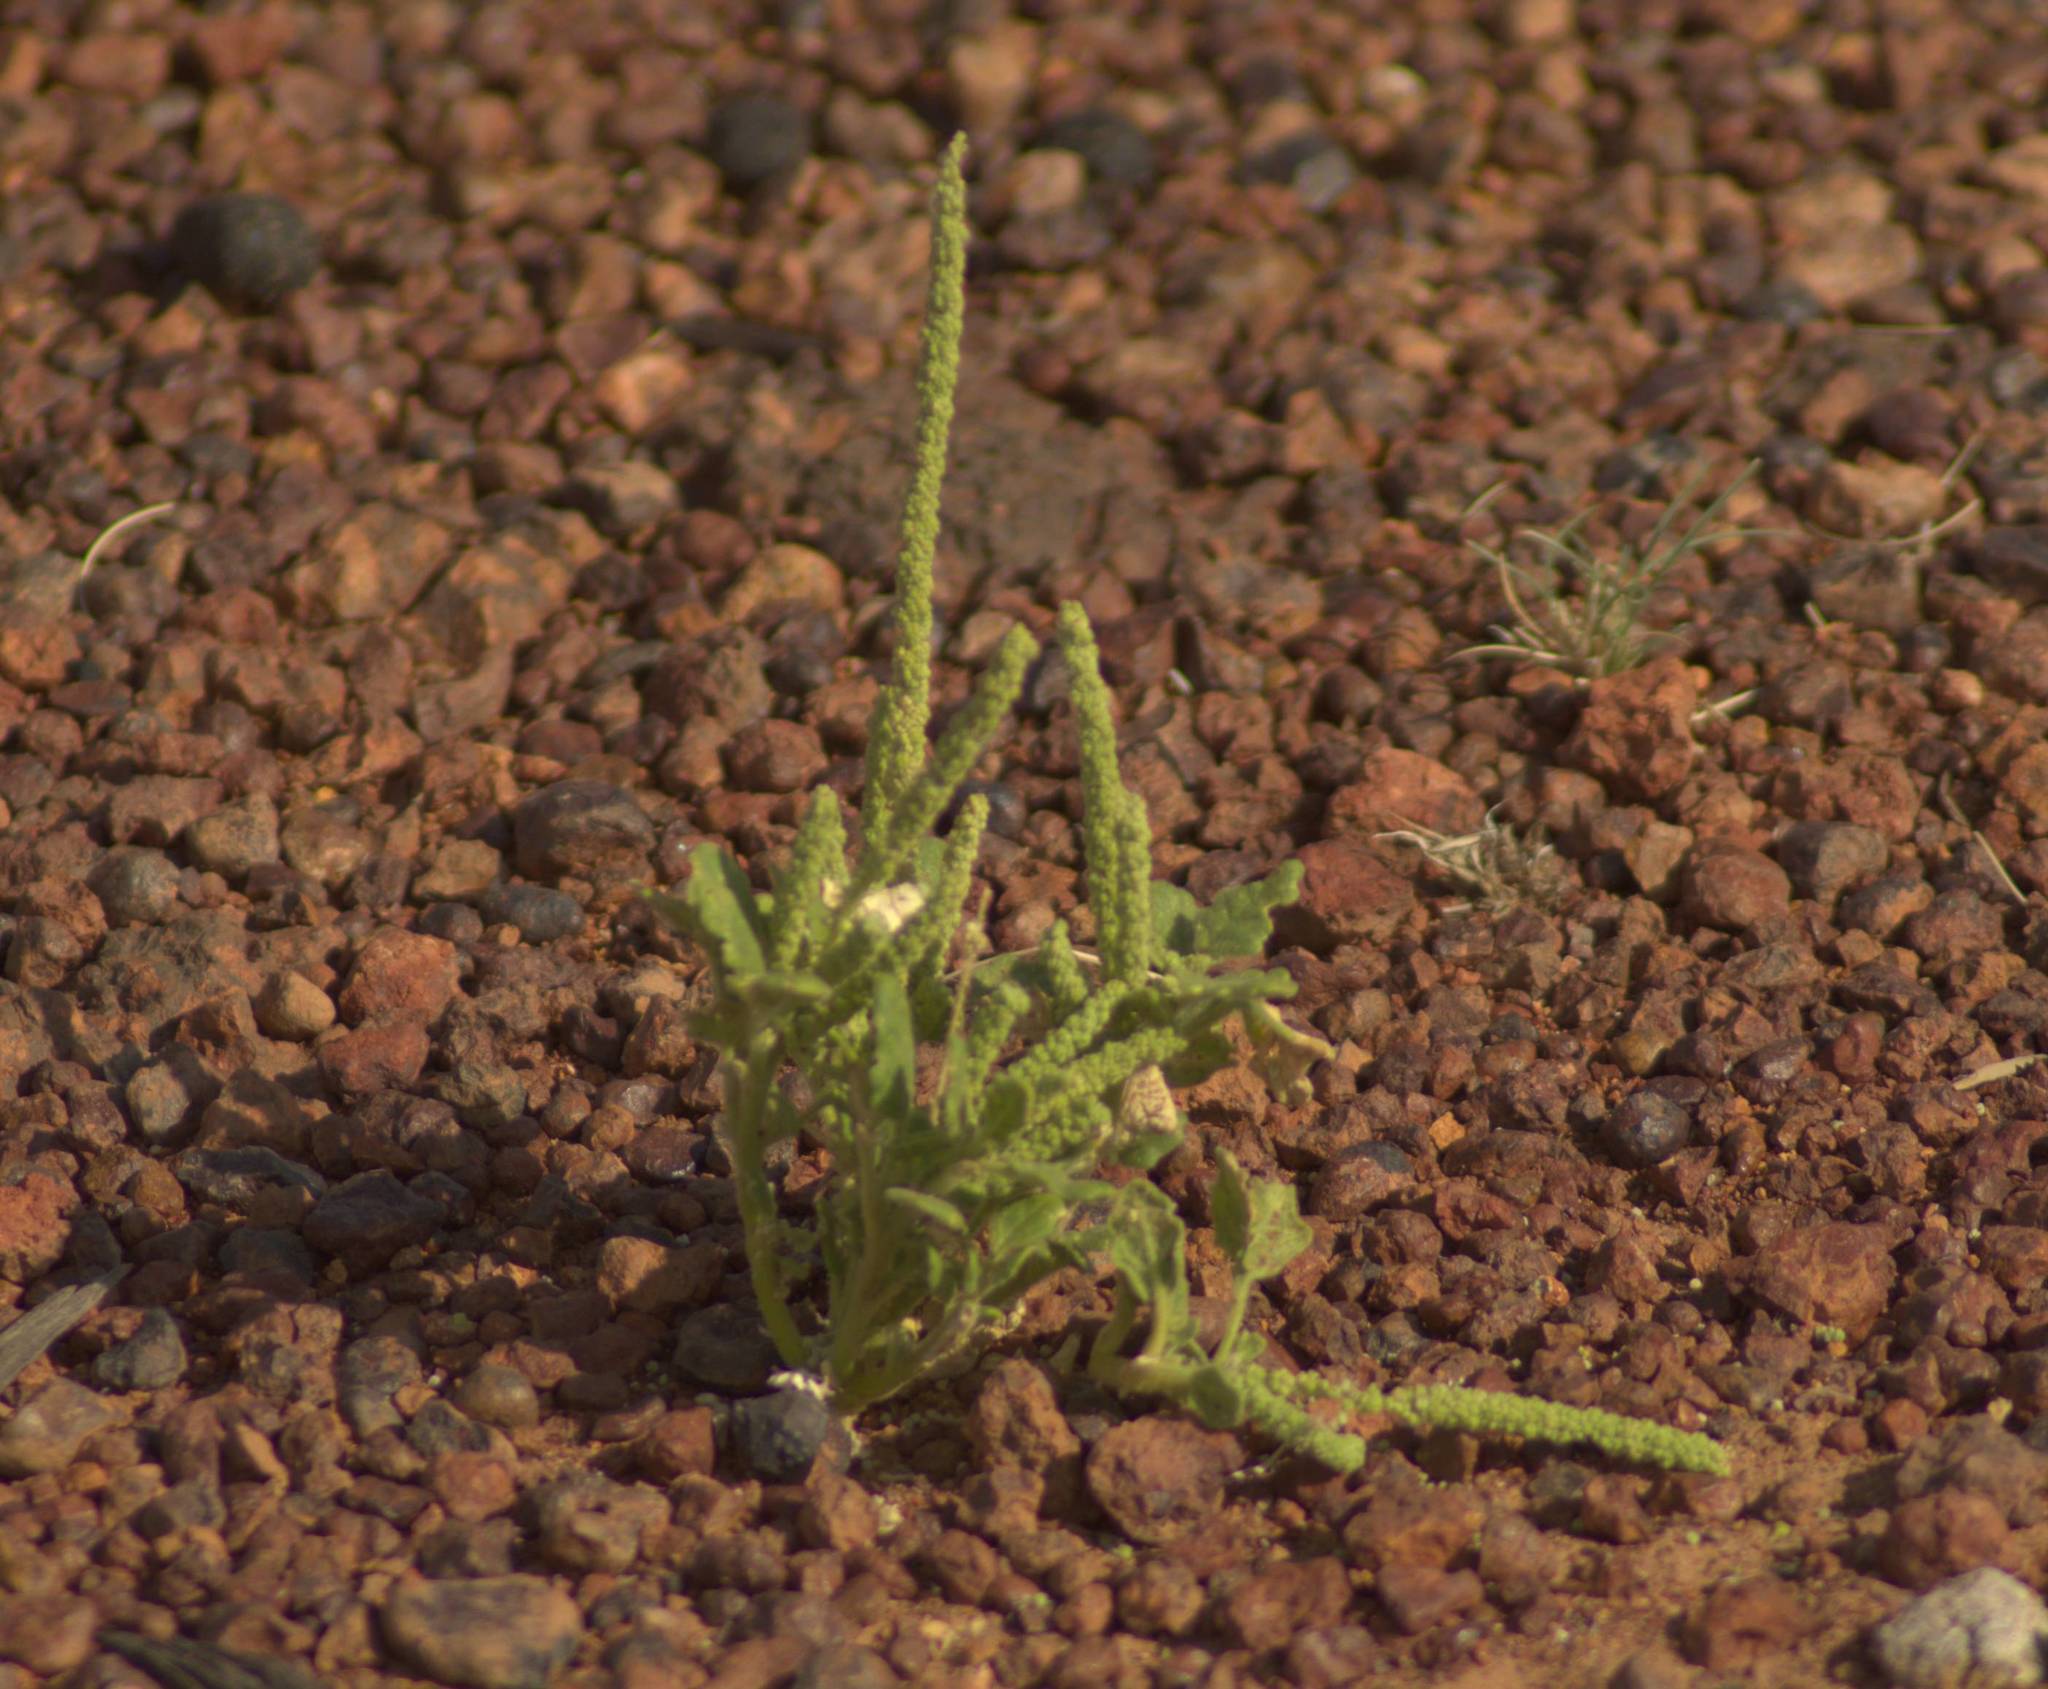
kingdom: Plantae
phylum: Tracheophyta
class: Magnoliopsida
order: Caryophyllales
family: Amaranthaceae
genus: Dysphania
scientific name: Dysphania rhadinostachya
